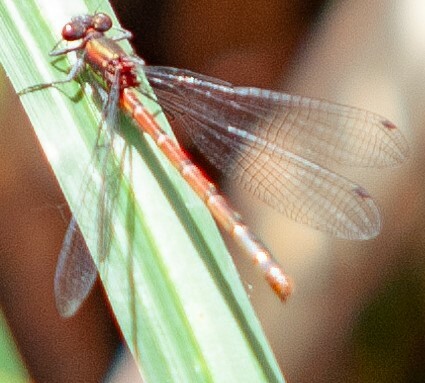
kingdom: Animalia
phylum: Arthropoda
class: Insecta
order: Odonata
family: Coenagrionidae
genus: Pyrrhosoma
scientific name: Pyrrhosoma nymphula
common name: Large red damsel
